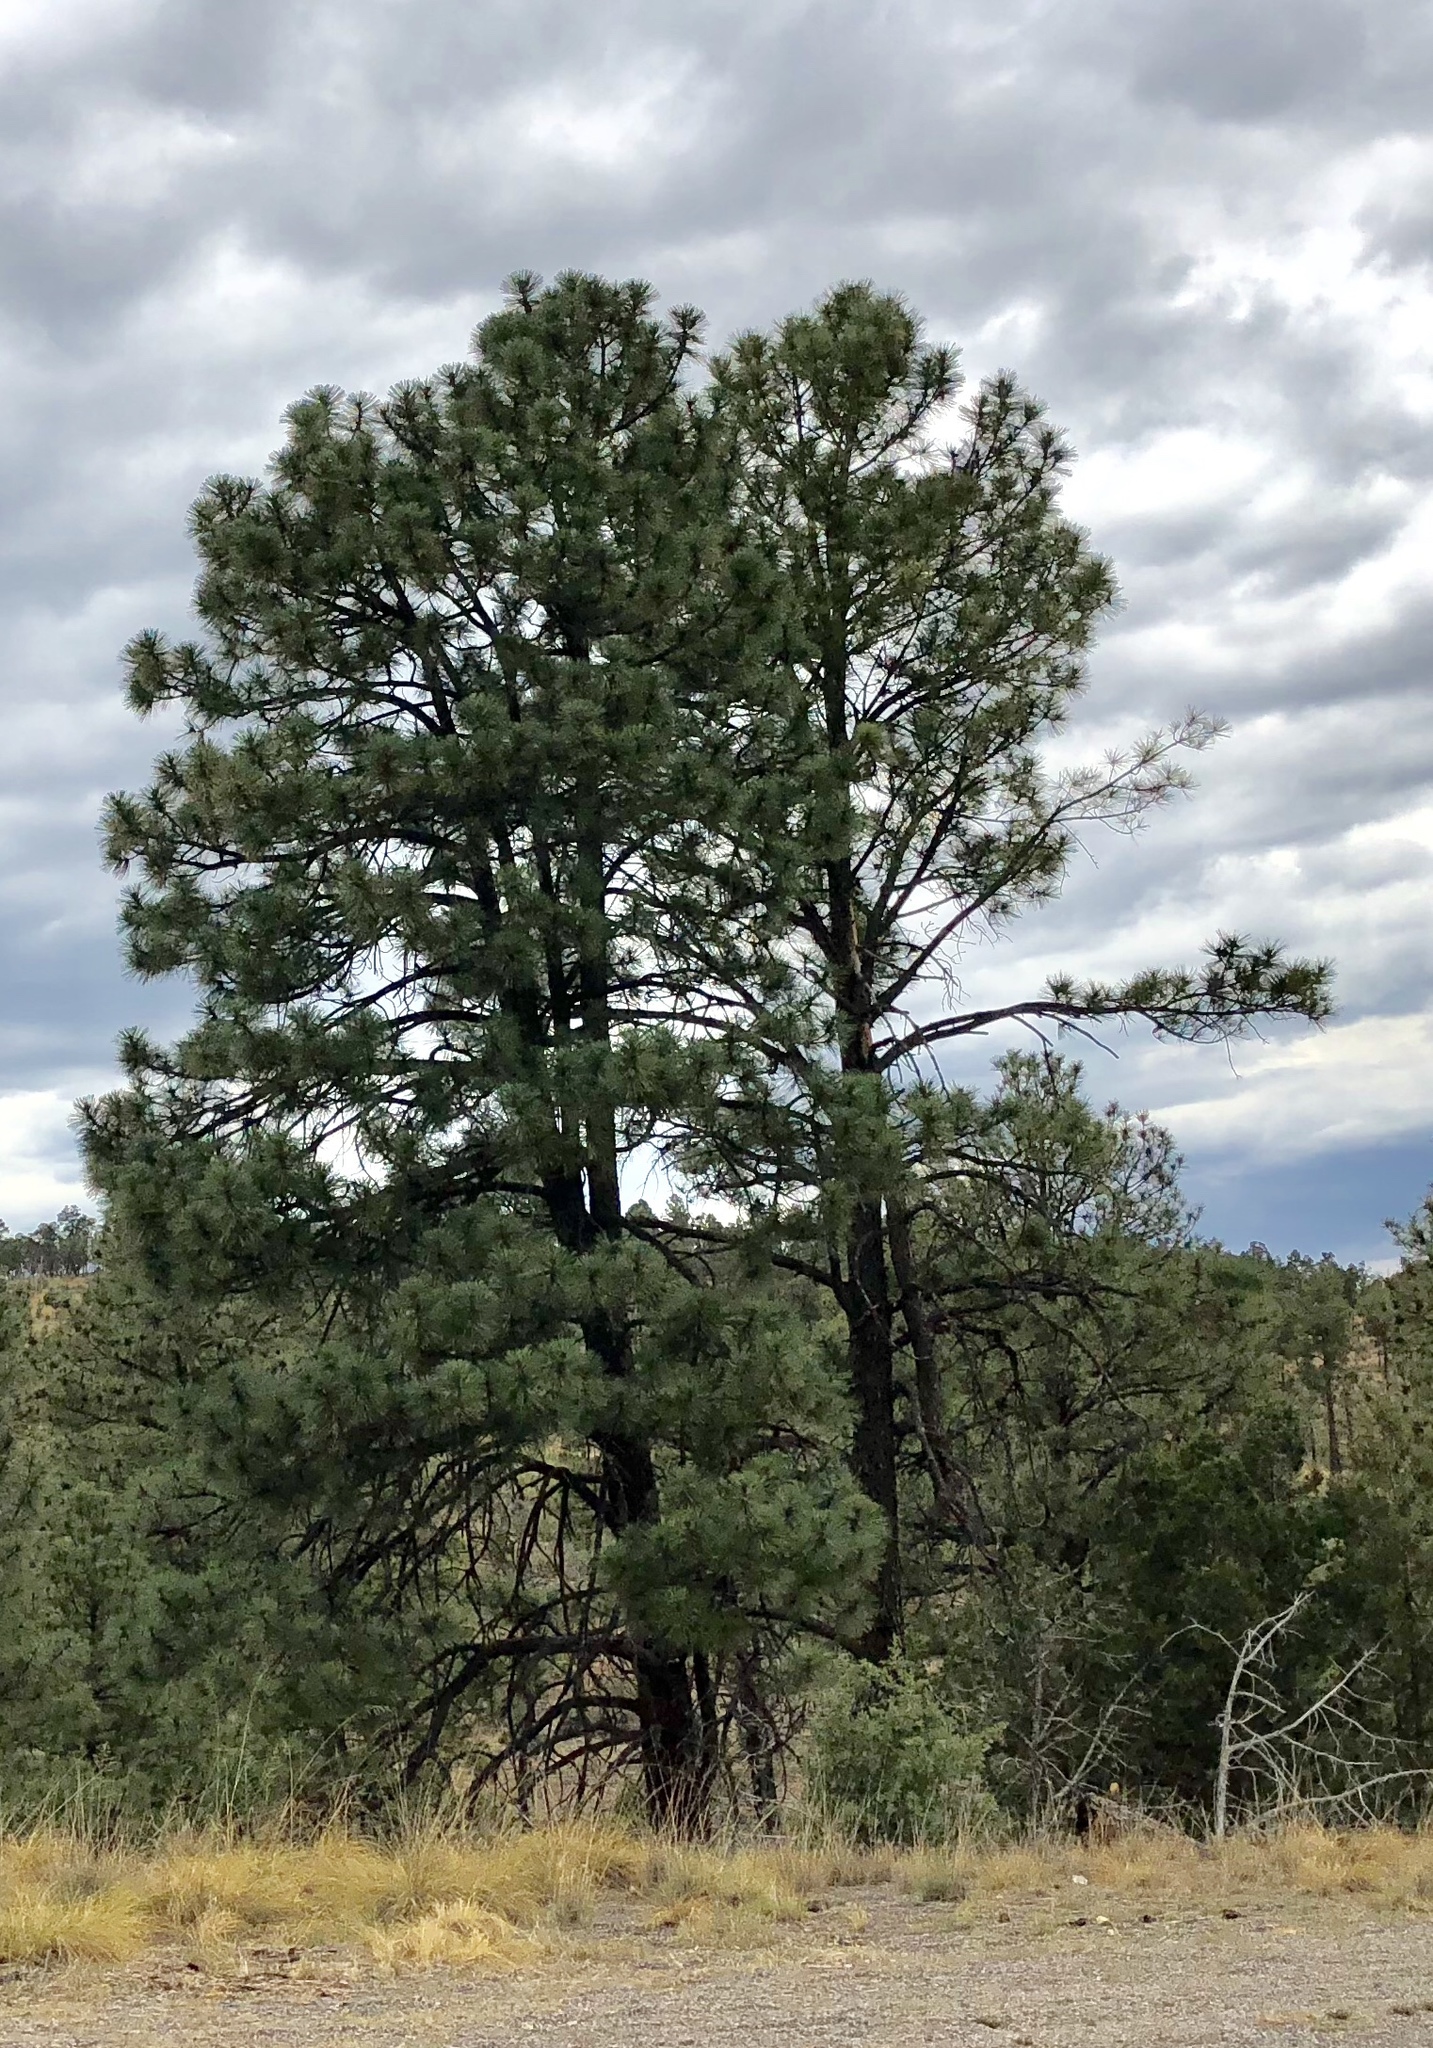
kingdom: Plantae
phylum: Tracheophyta
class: Pinopsida
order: Pinales
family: Pinaceae
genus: Pinus
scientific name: Pinus ponderosa
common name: Western yellow-pine
